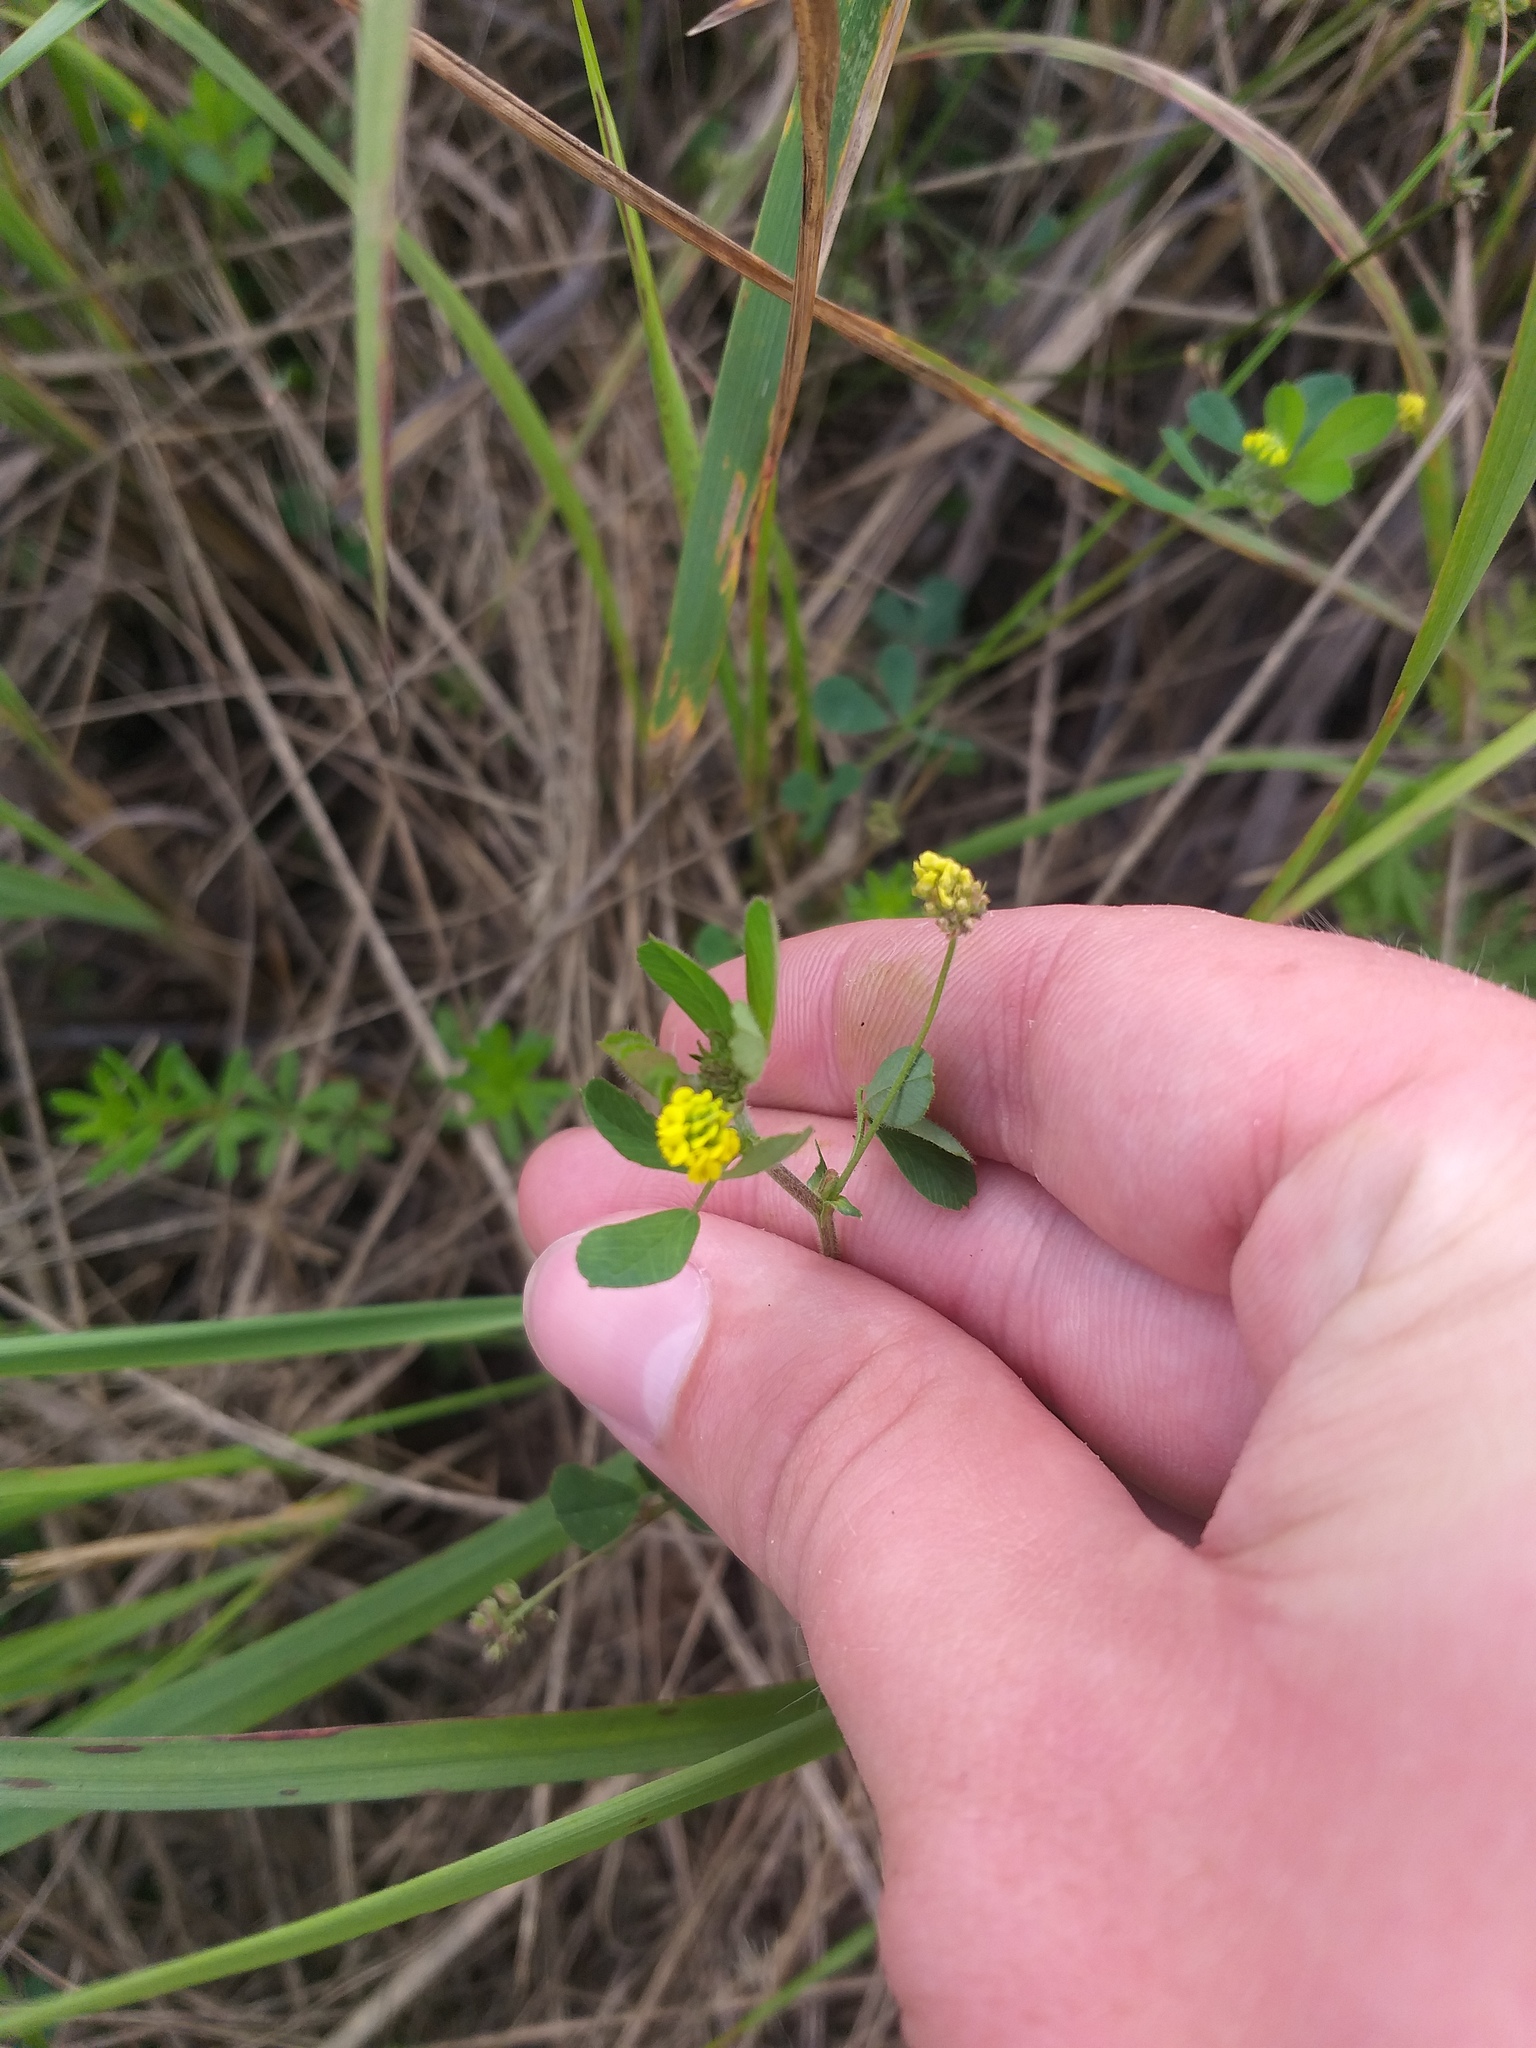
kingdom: Plantae
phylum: Tracheophyta
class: Magnoliopsida
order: Fabales
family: Fabaceae
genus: Medicago
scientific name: Medicago lupulina
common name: Black medick
